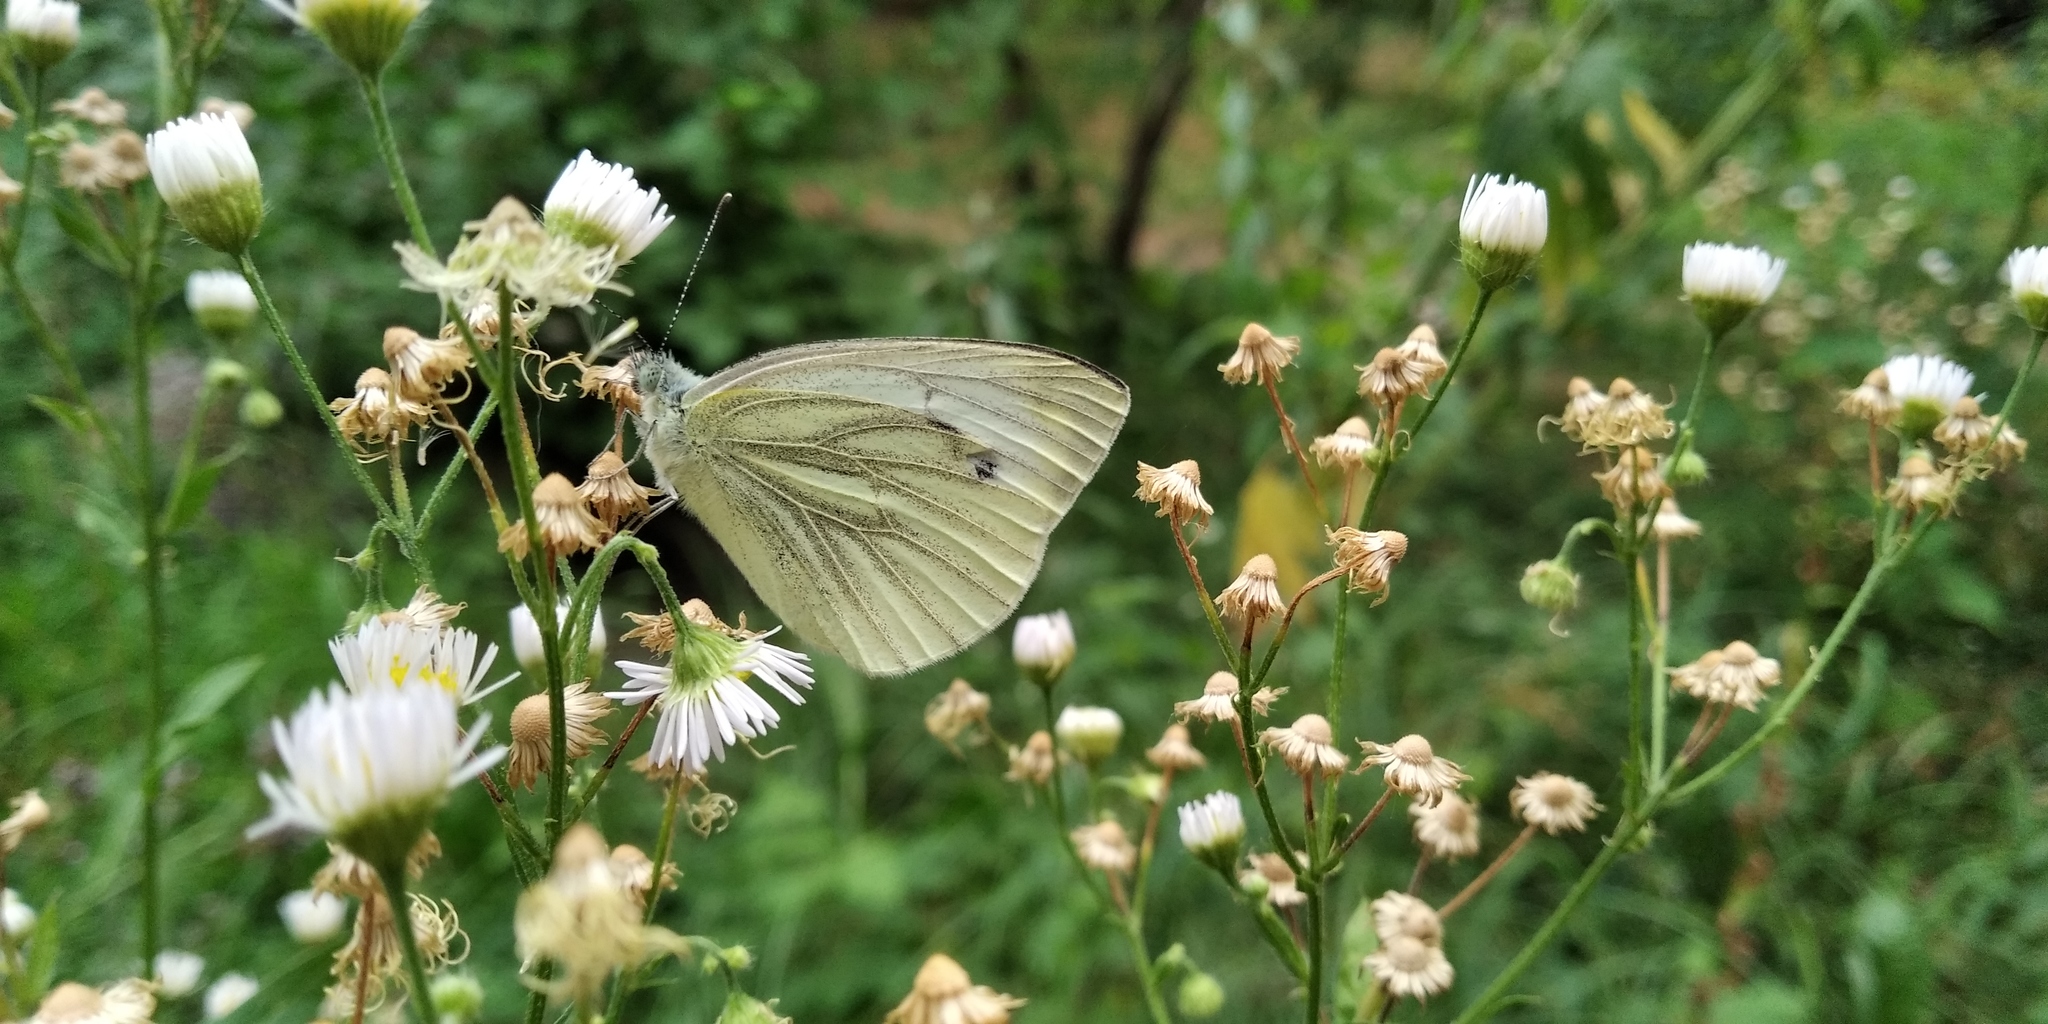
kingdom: Animalia
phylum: Arthropoda
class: Insecta
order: Lepidoptera
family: Pieridae
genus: Pieris
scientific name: Pieris napi
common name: Green-veined white
